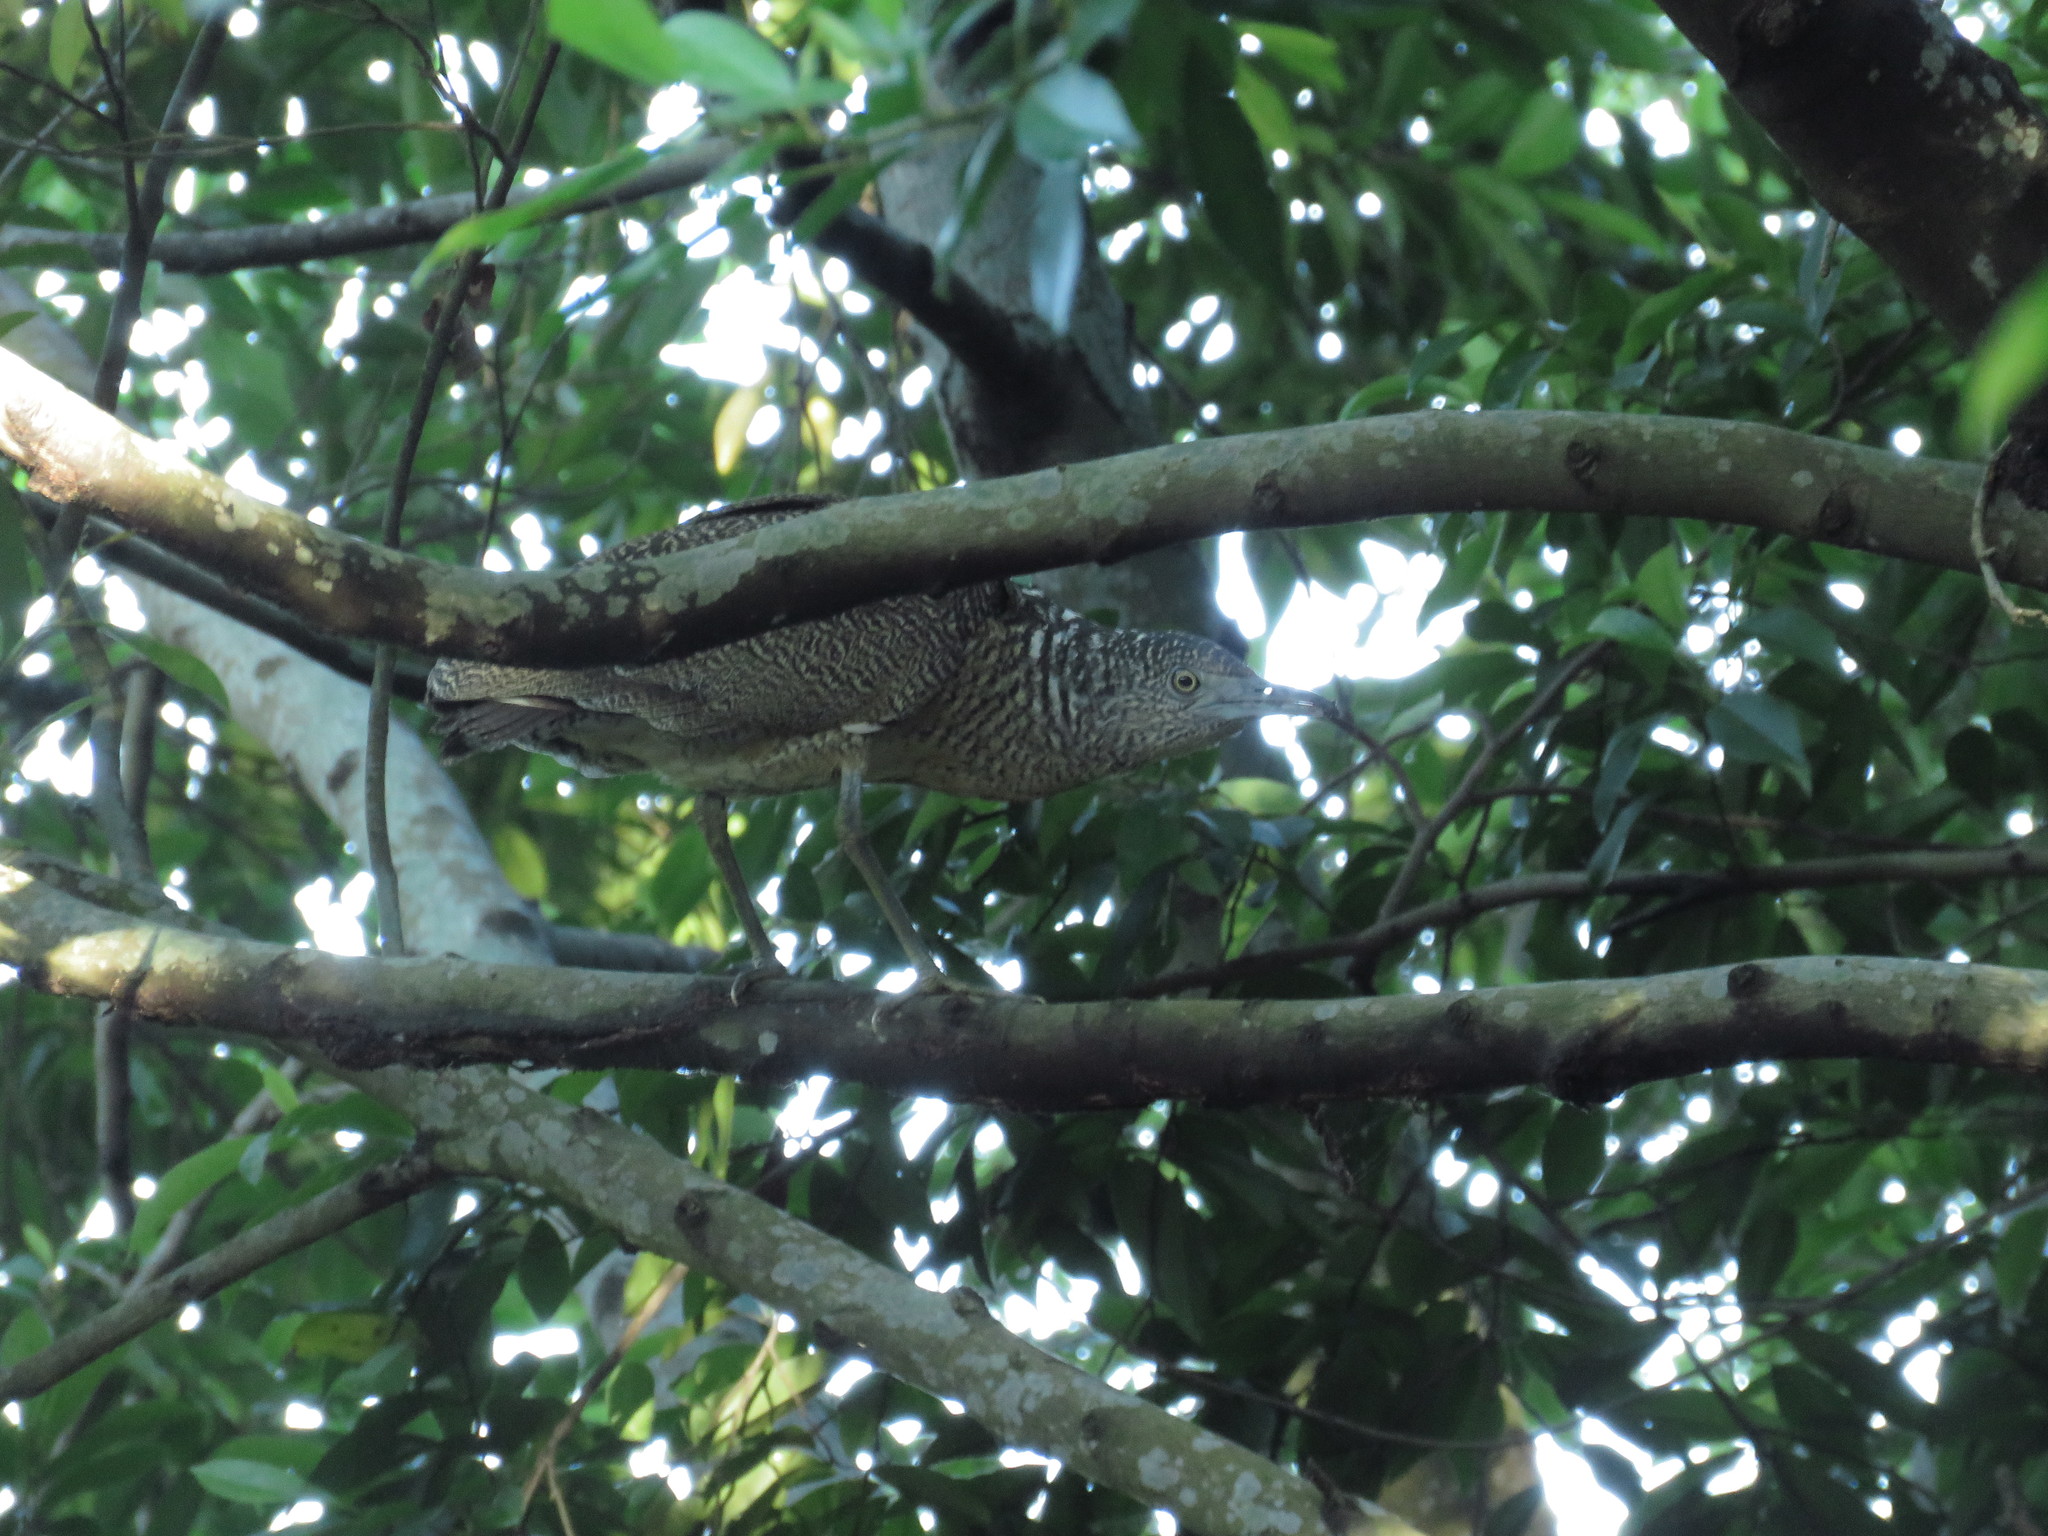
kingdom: Animalia
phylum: Chordata
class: Aves
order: Pelecaniformes
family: Ardeidae
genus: Gorsachius
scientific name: Gorsachius melanolophus
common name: Malayan night heron
